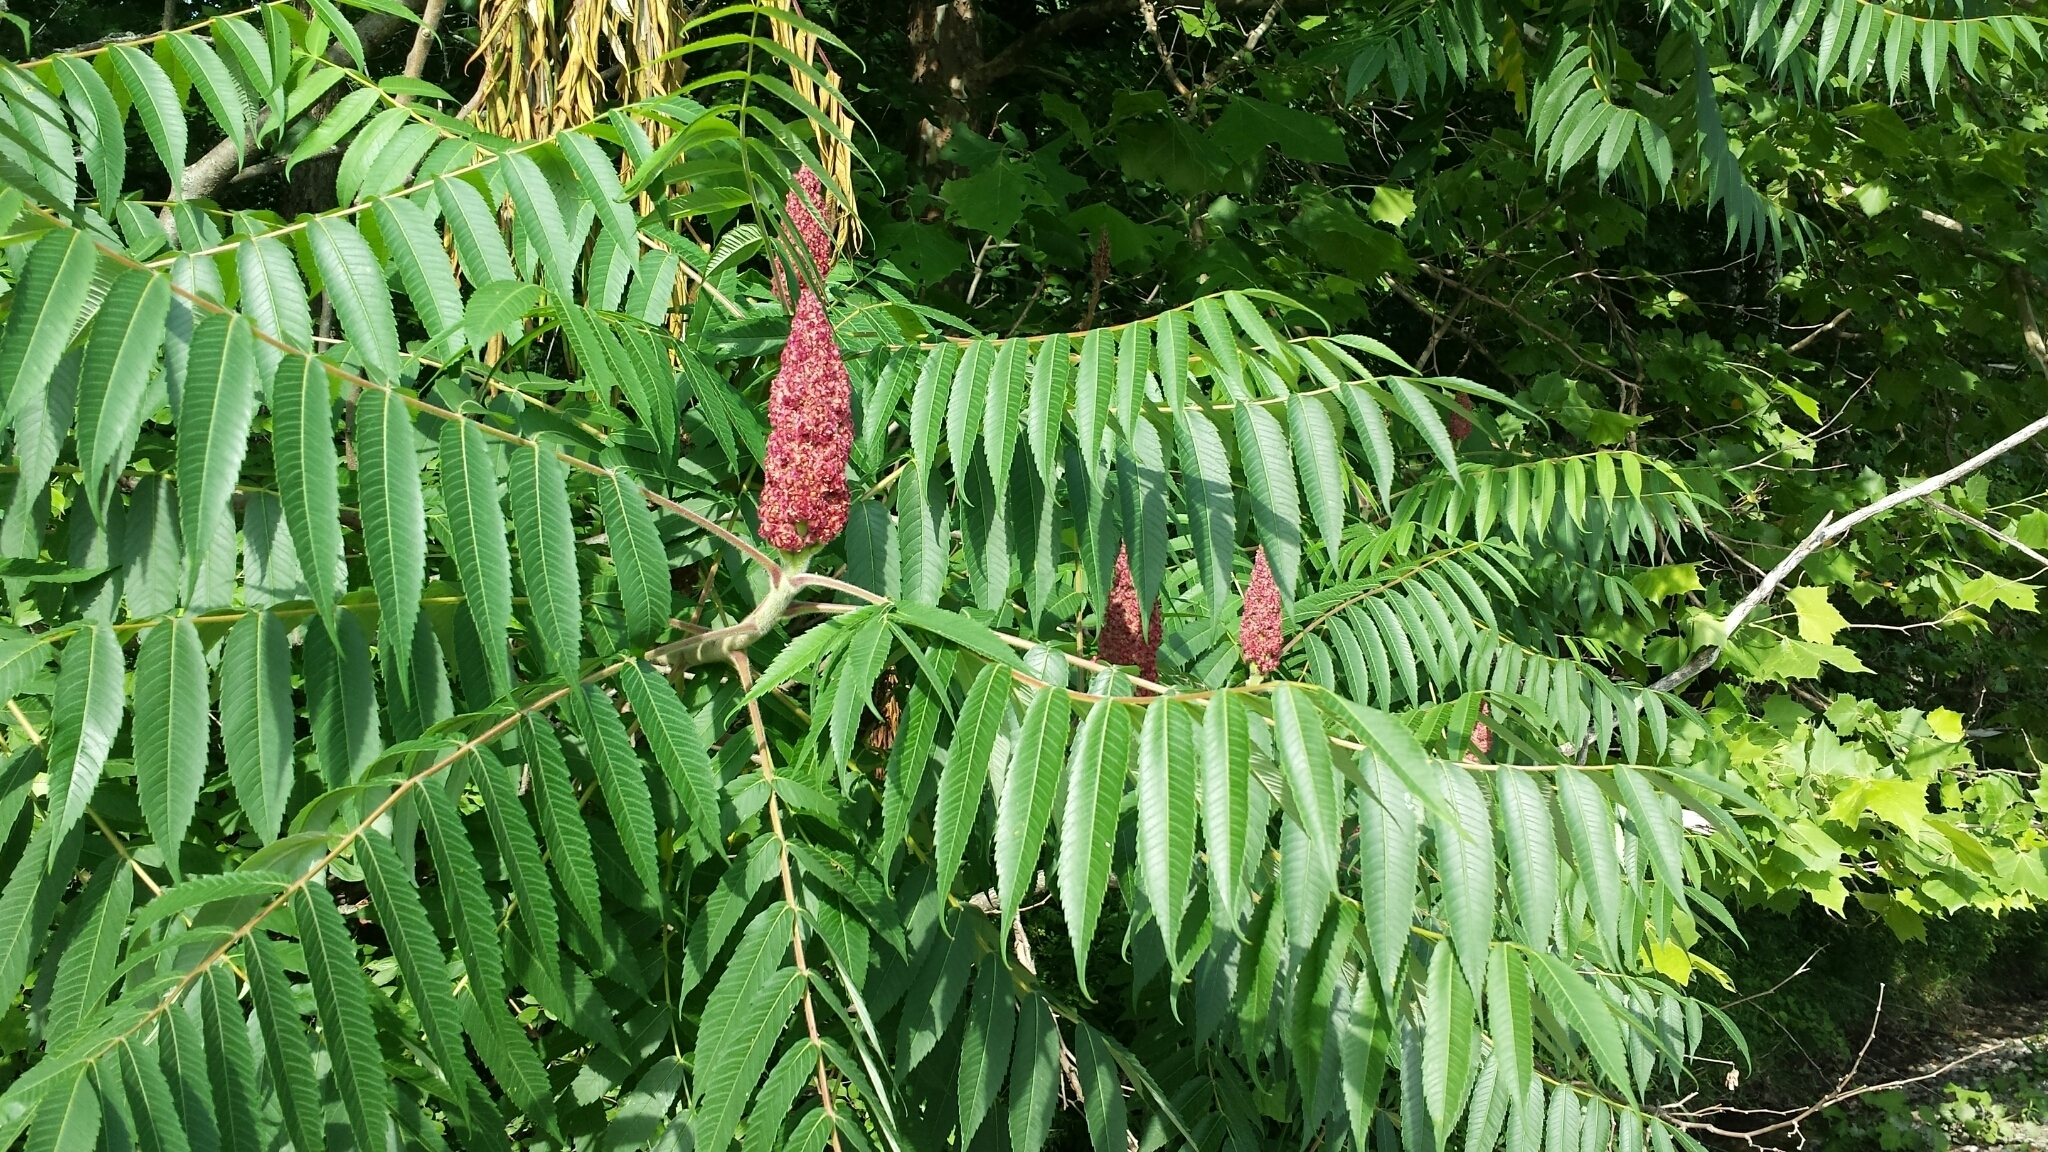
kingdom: Plantae
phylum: Tracheophyta
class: Magnoliopsida
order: Sapindales
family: Anacardiaceae
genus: Rhus
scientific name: Rhus typhina
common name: Staghorn sumac
